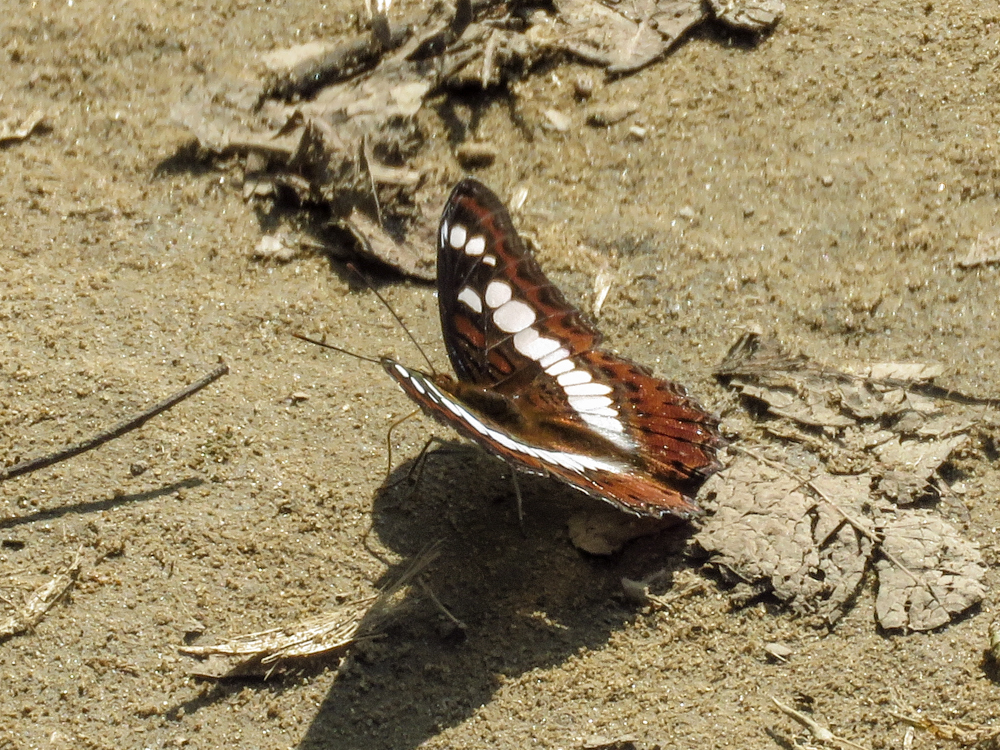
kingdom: Animalia
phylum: Arthropoda
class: Insecta
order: Lepidoptera
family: Nymphalidae
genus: Limenitis
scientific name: Limenitis Moduza procris
